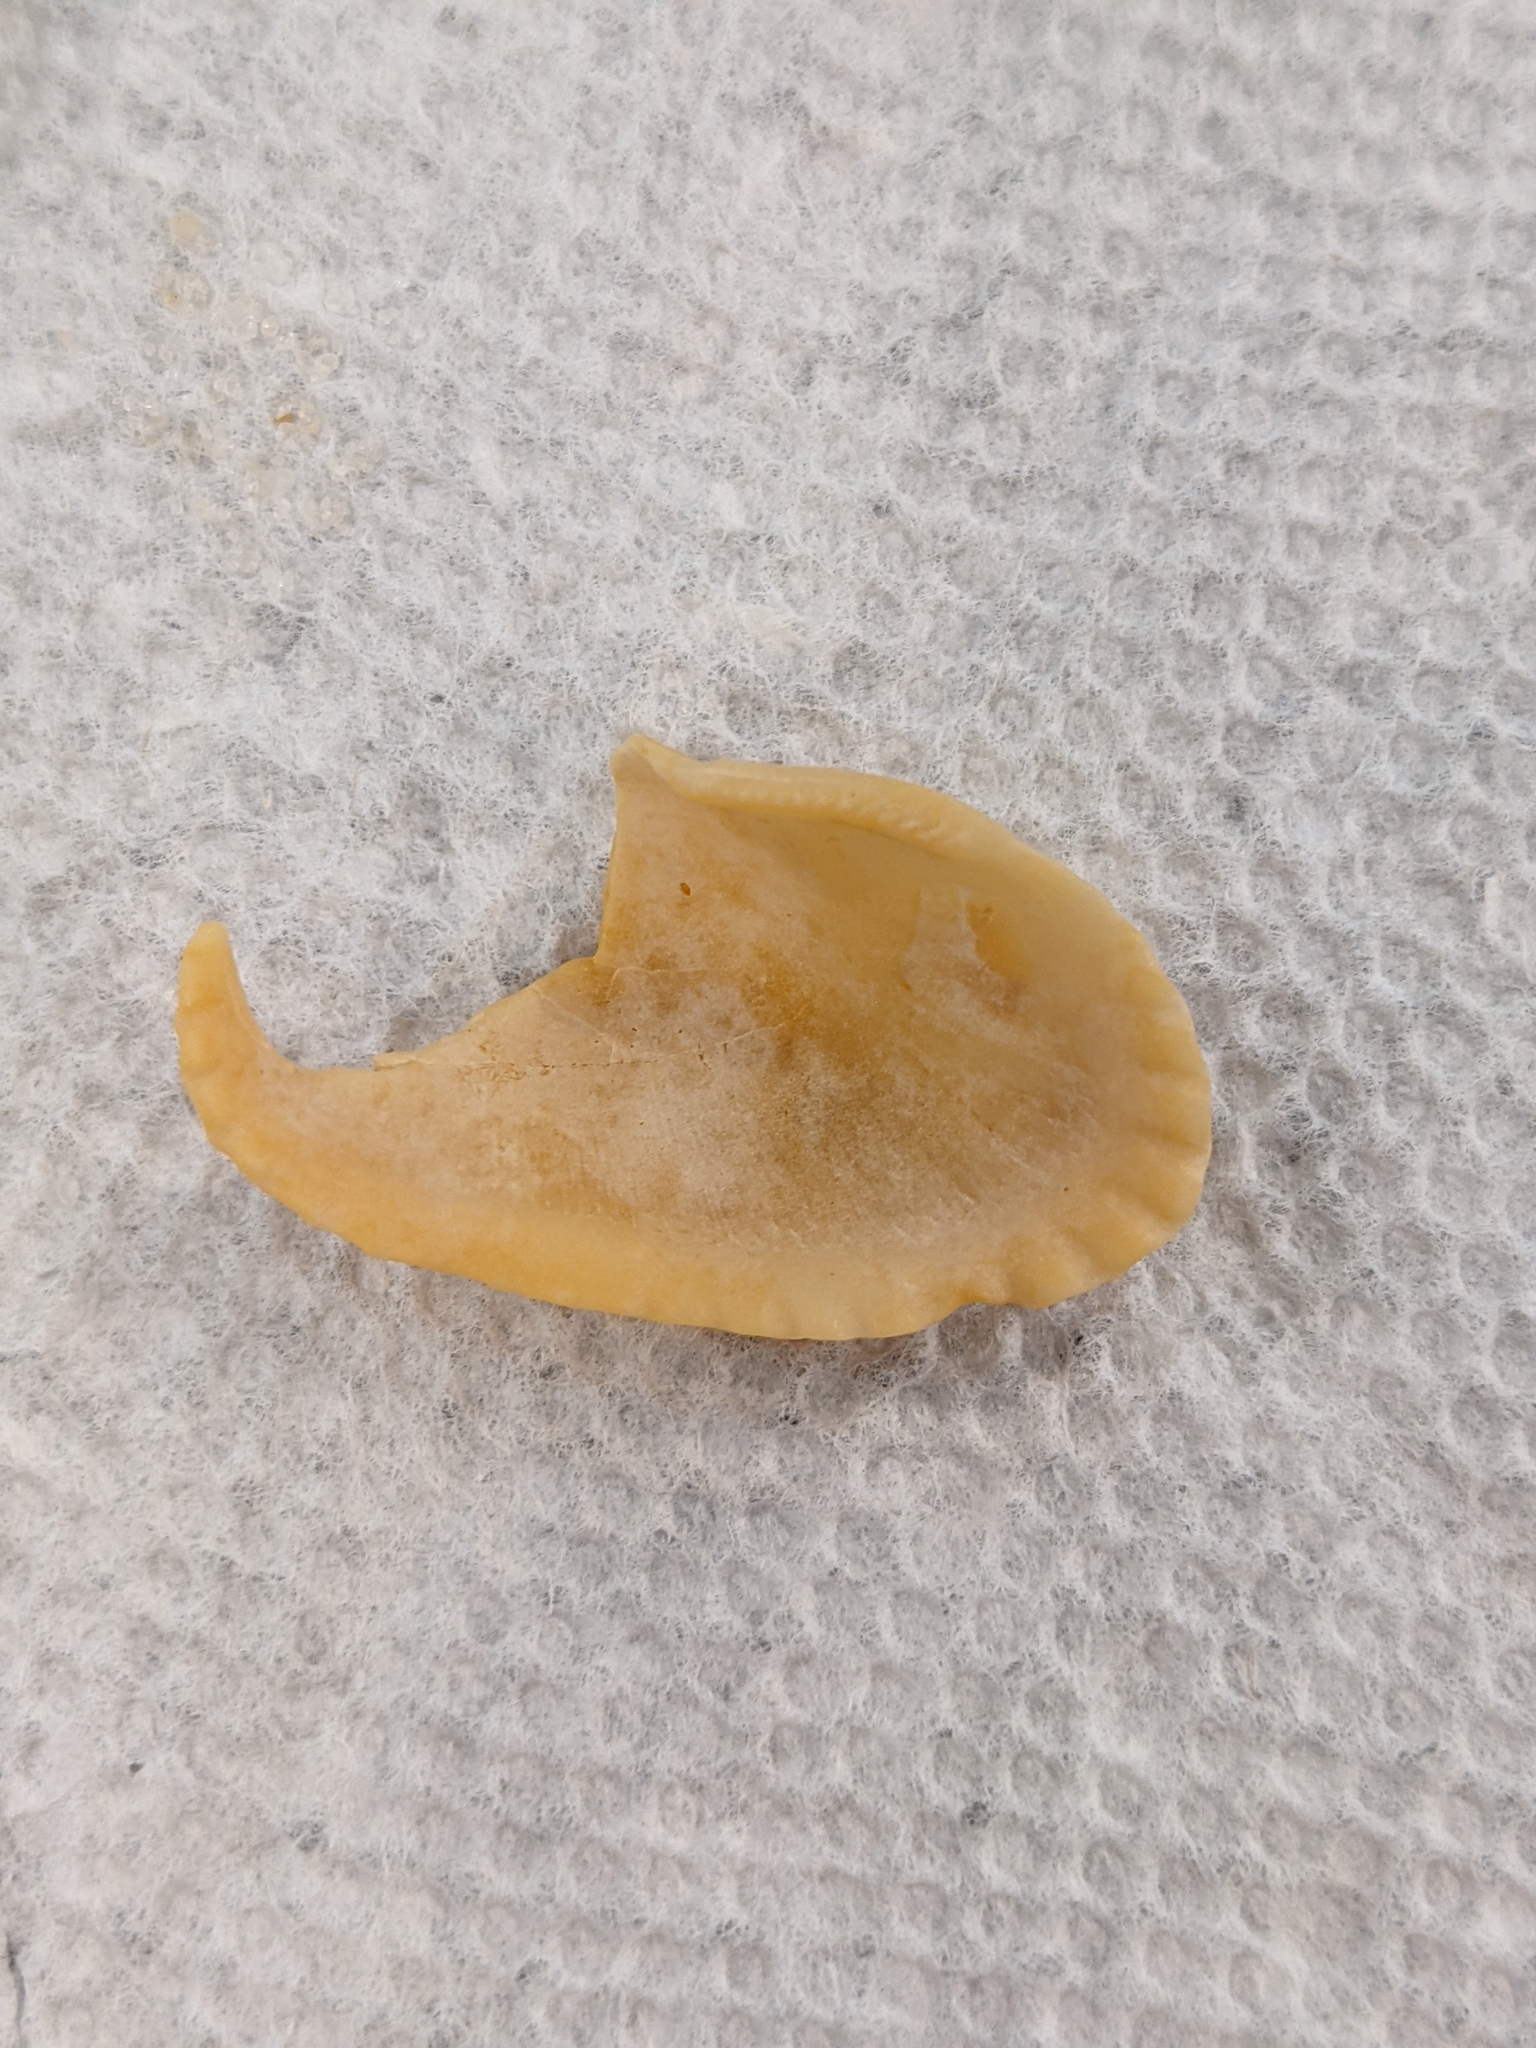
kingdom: Animalia
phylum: Mollusca
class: Bivalvia
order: Arcida
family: Arcidae
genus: Anadara
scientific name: Anadara transversa
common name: Transverse ark
